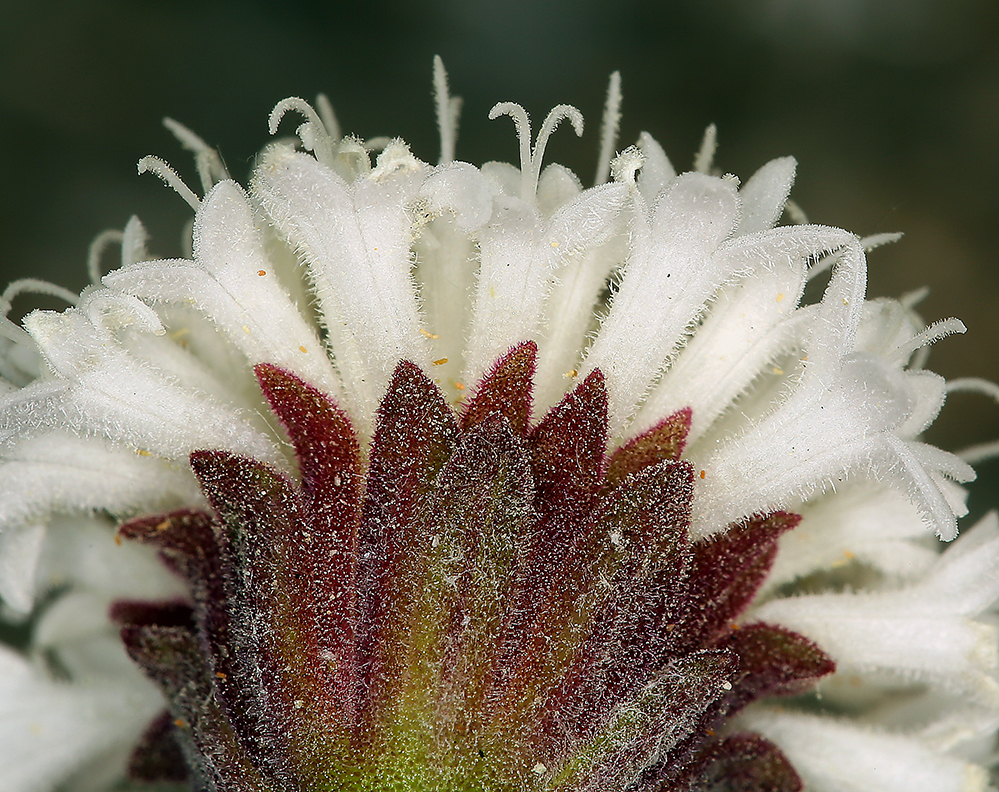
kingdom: Plantae
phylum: Tracheophyta
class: Magnoliopsida
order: Asterales
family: Asteraceae
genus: Chaenactis
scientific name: Chaenactis stevioides
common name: Desert pincushion
